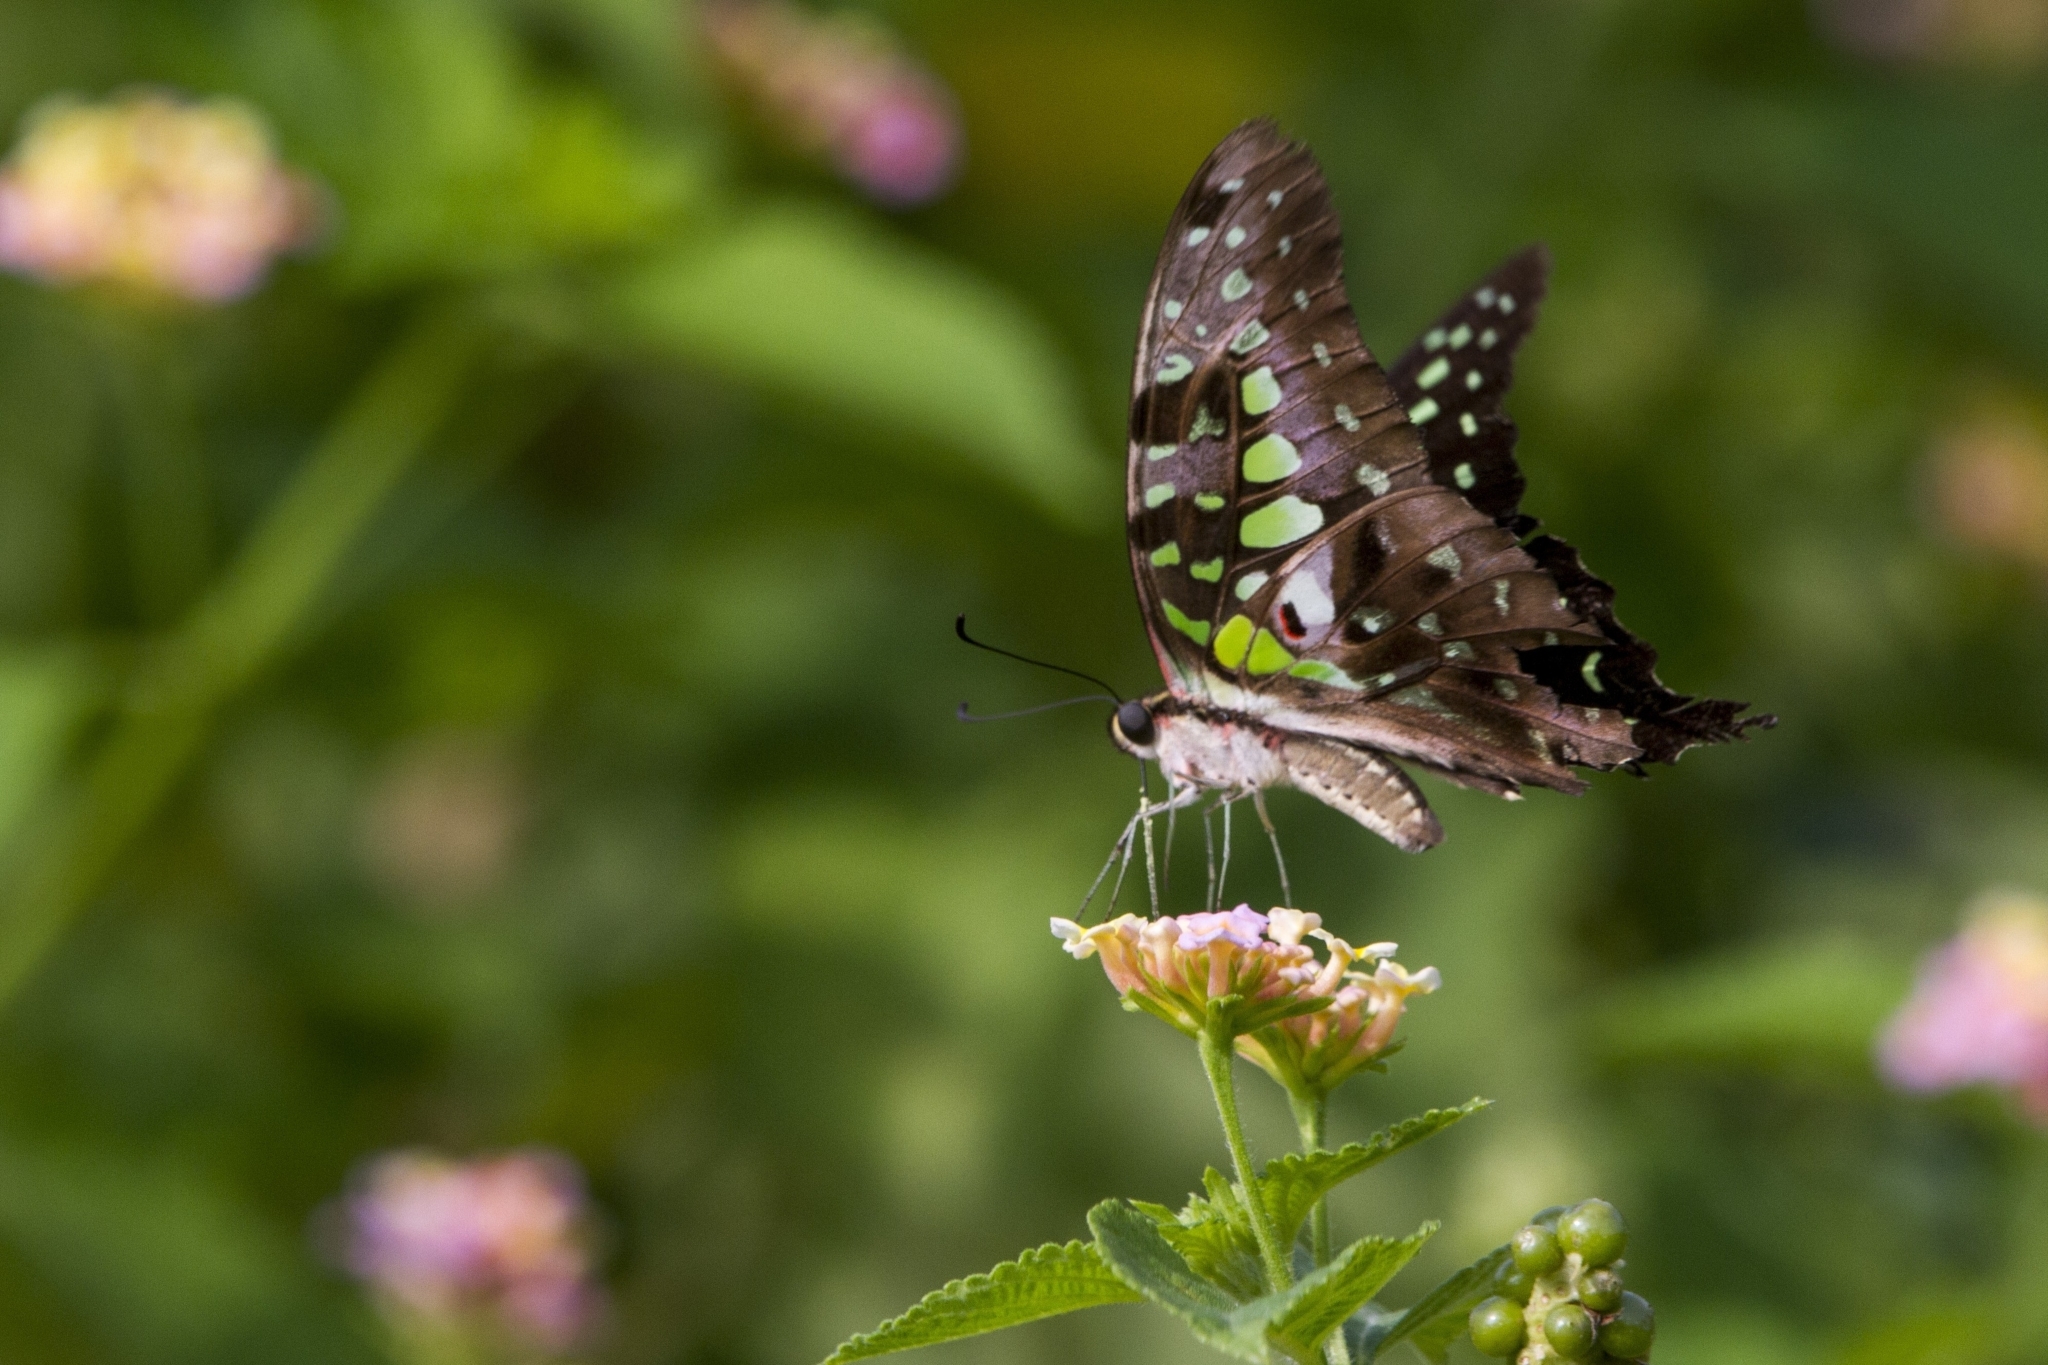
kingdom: Animalia
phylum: Arthropoda
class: Insecta
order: Lepidoptera
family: Papilionidae
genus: Graphium
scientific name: Graphium agamemnon
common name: Tailed jay
